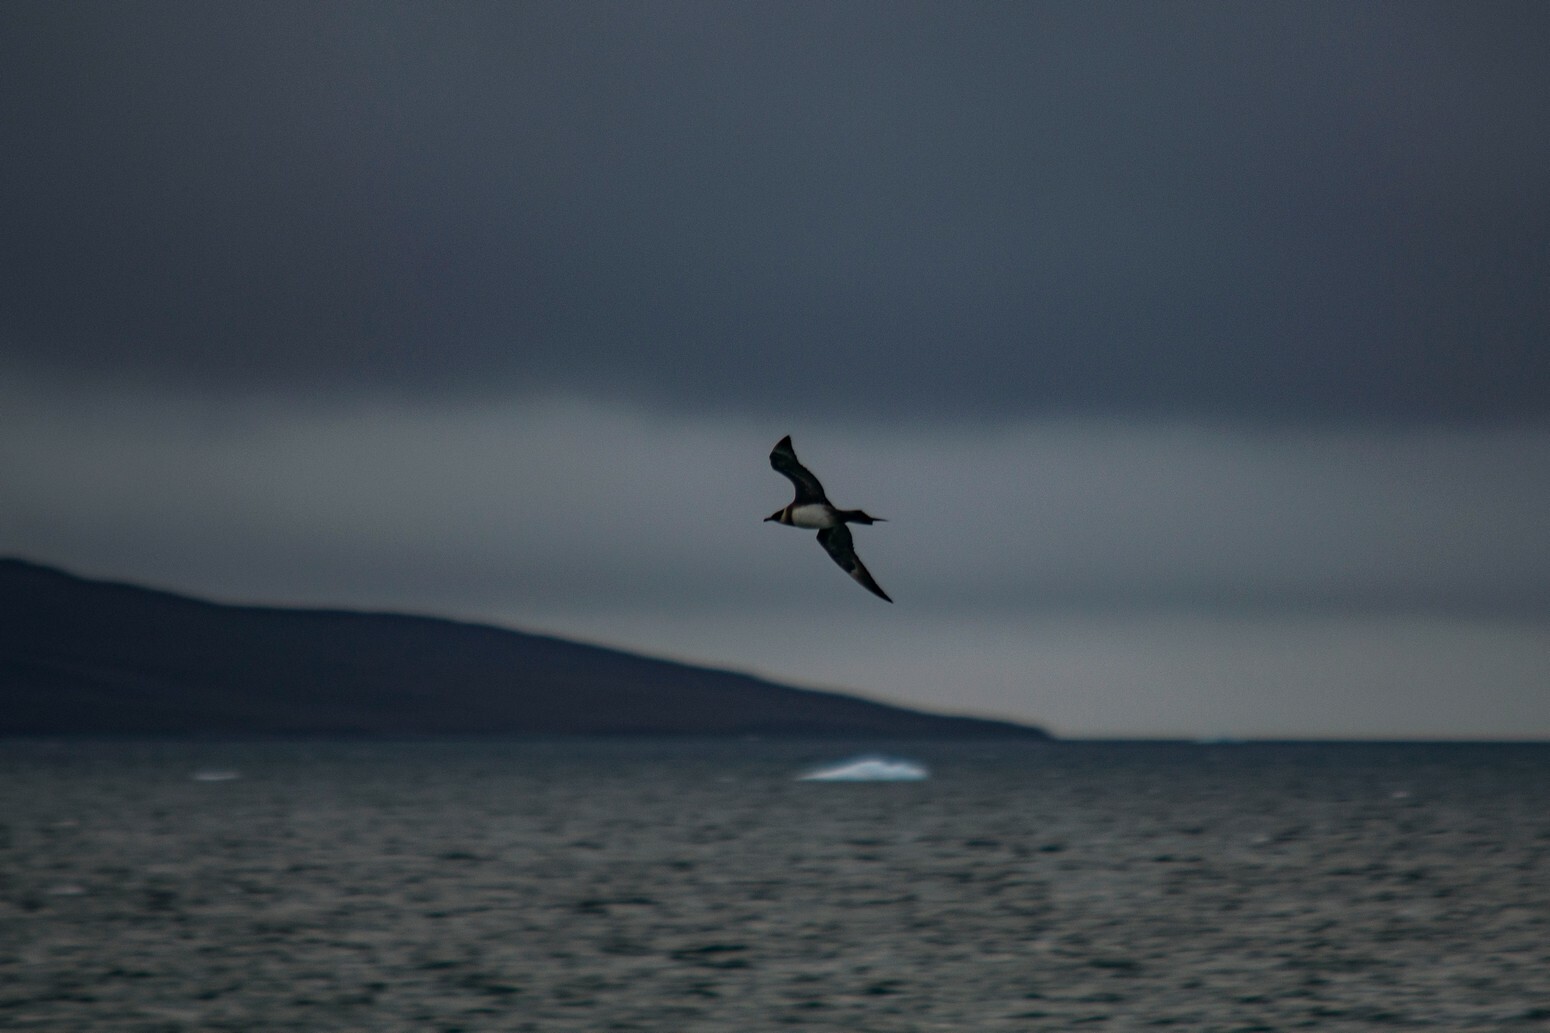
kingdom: Animalia
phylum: Chordata
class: Aves
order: Charadriiformes
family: Stercorariidae
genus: Stercorarius
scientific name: Stercorarius parasiticus
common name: Parasitic jaeger
